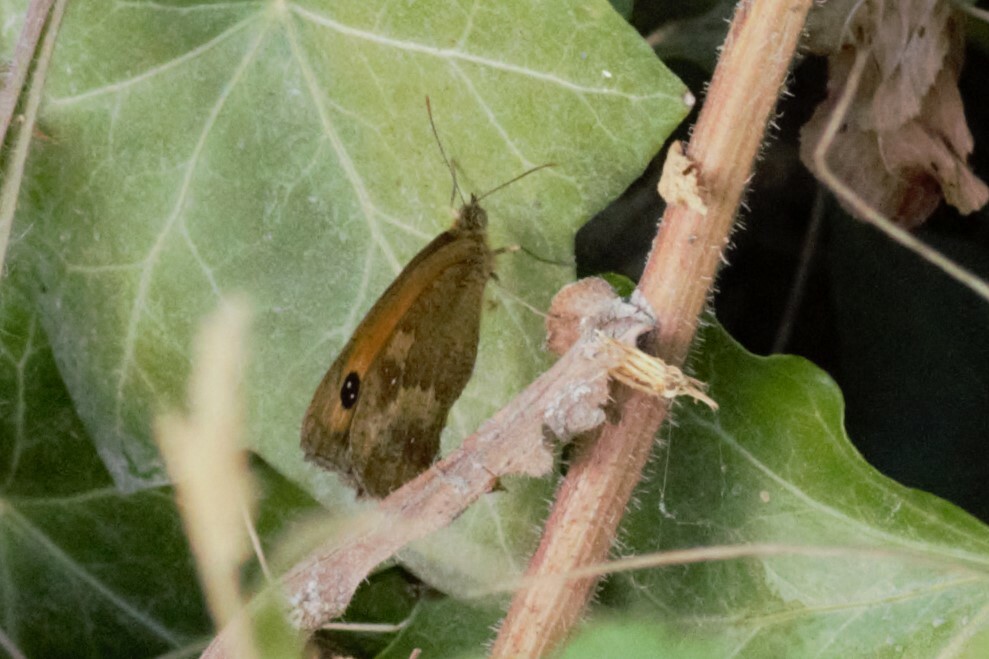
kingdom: Animalia
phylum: Arthropoda
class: Insecta
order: Lepidoptera
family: Nymphalidae
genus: Pyronia
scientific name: Pyronia tithonus
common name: Gatekeeper
